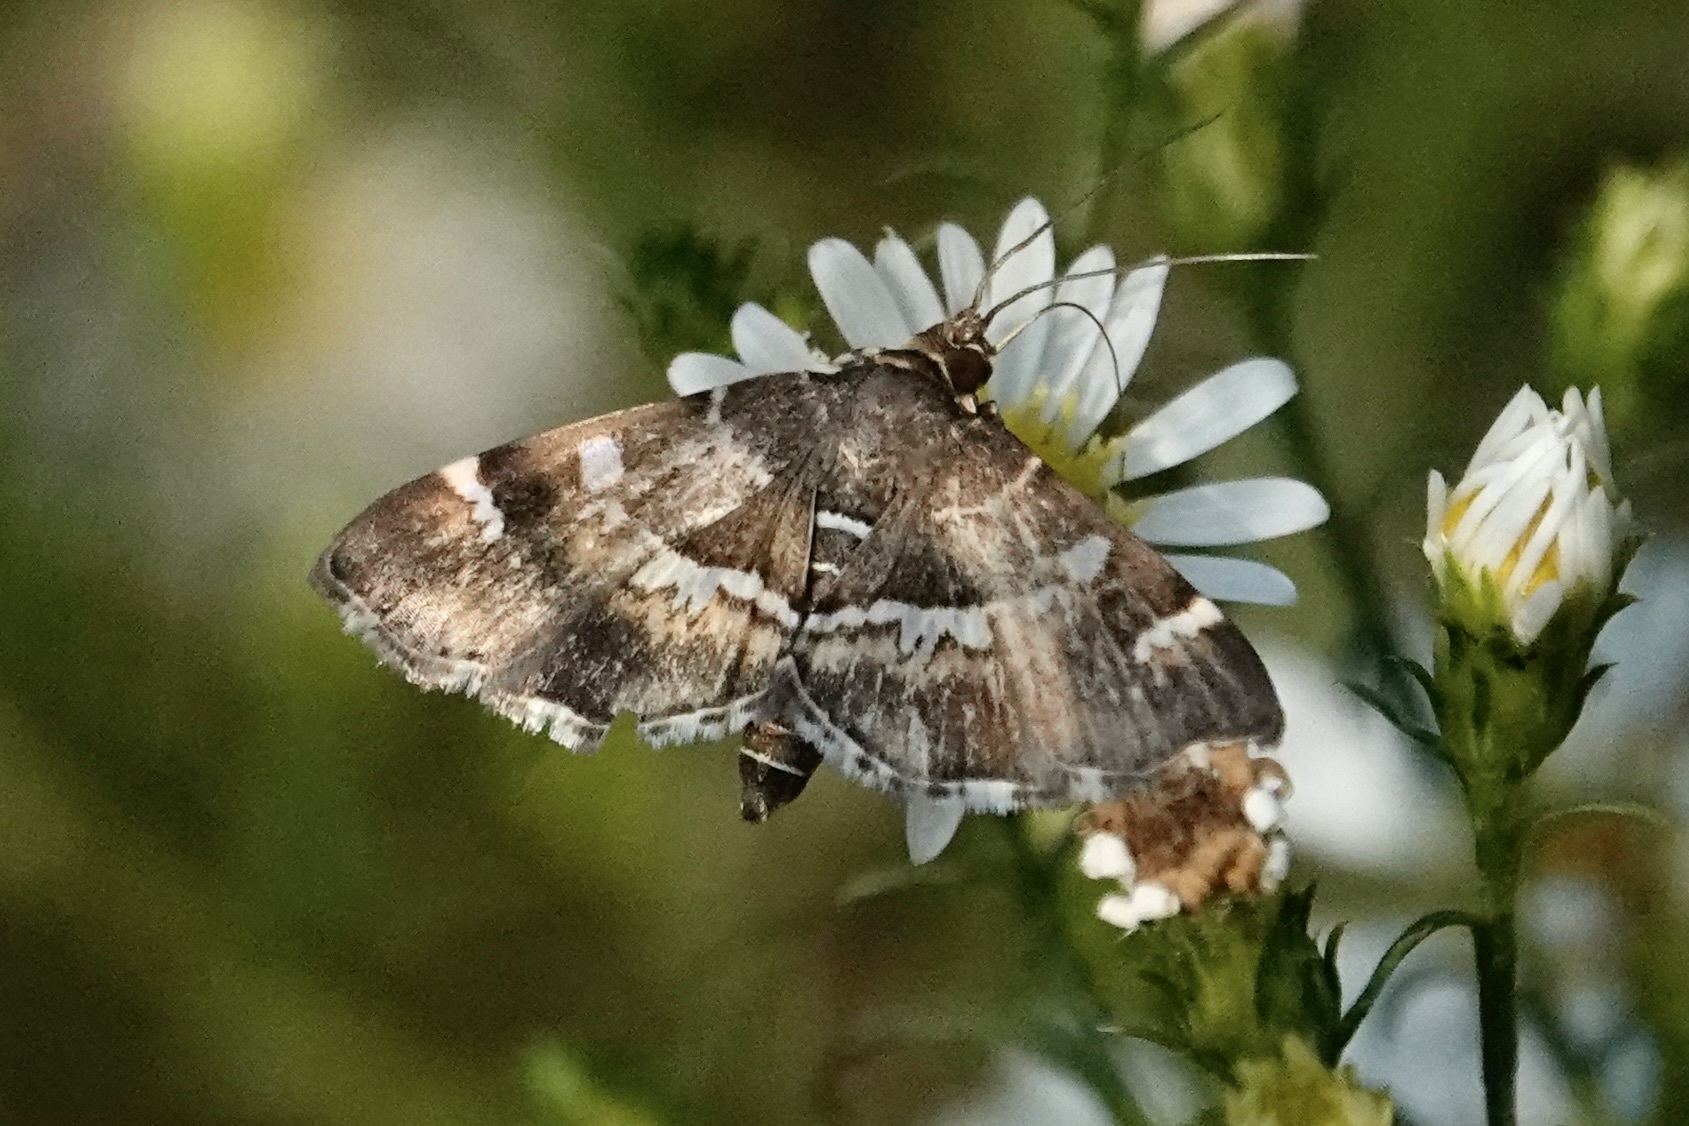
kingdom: Animalia
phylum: Arthropoda
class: Insecta
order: Lepidoptera
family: Crambidae
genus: Hymenia
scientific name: Hymenia perspectalis
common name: Spotted beet webworm
